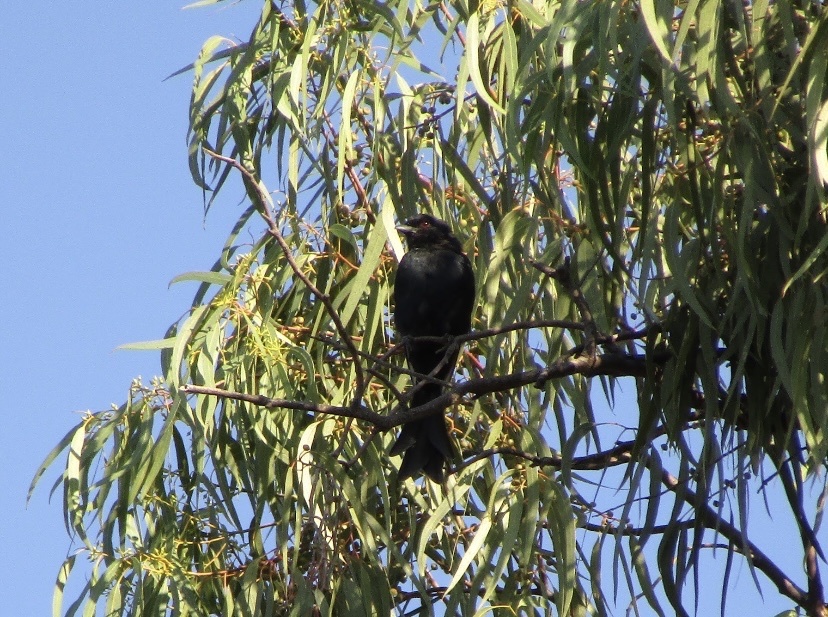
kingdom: Animalia
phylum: Chordata
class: Aves
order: Passeriformes
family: Dicruridae
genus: Dicrurus
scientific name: Dicrurus adsimilis
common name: Fork-tailed drongo
